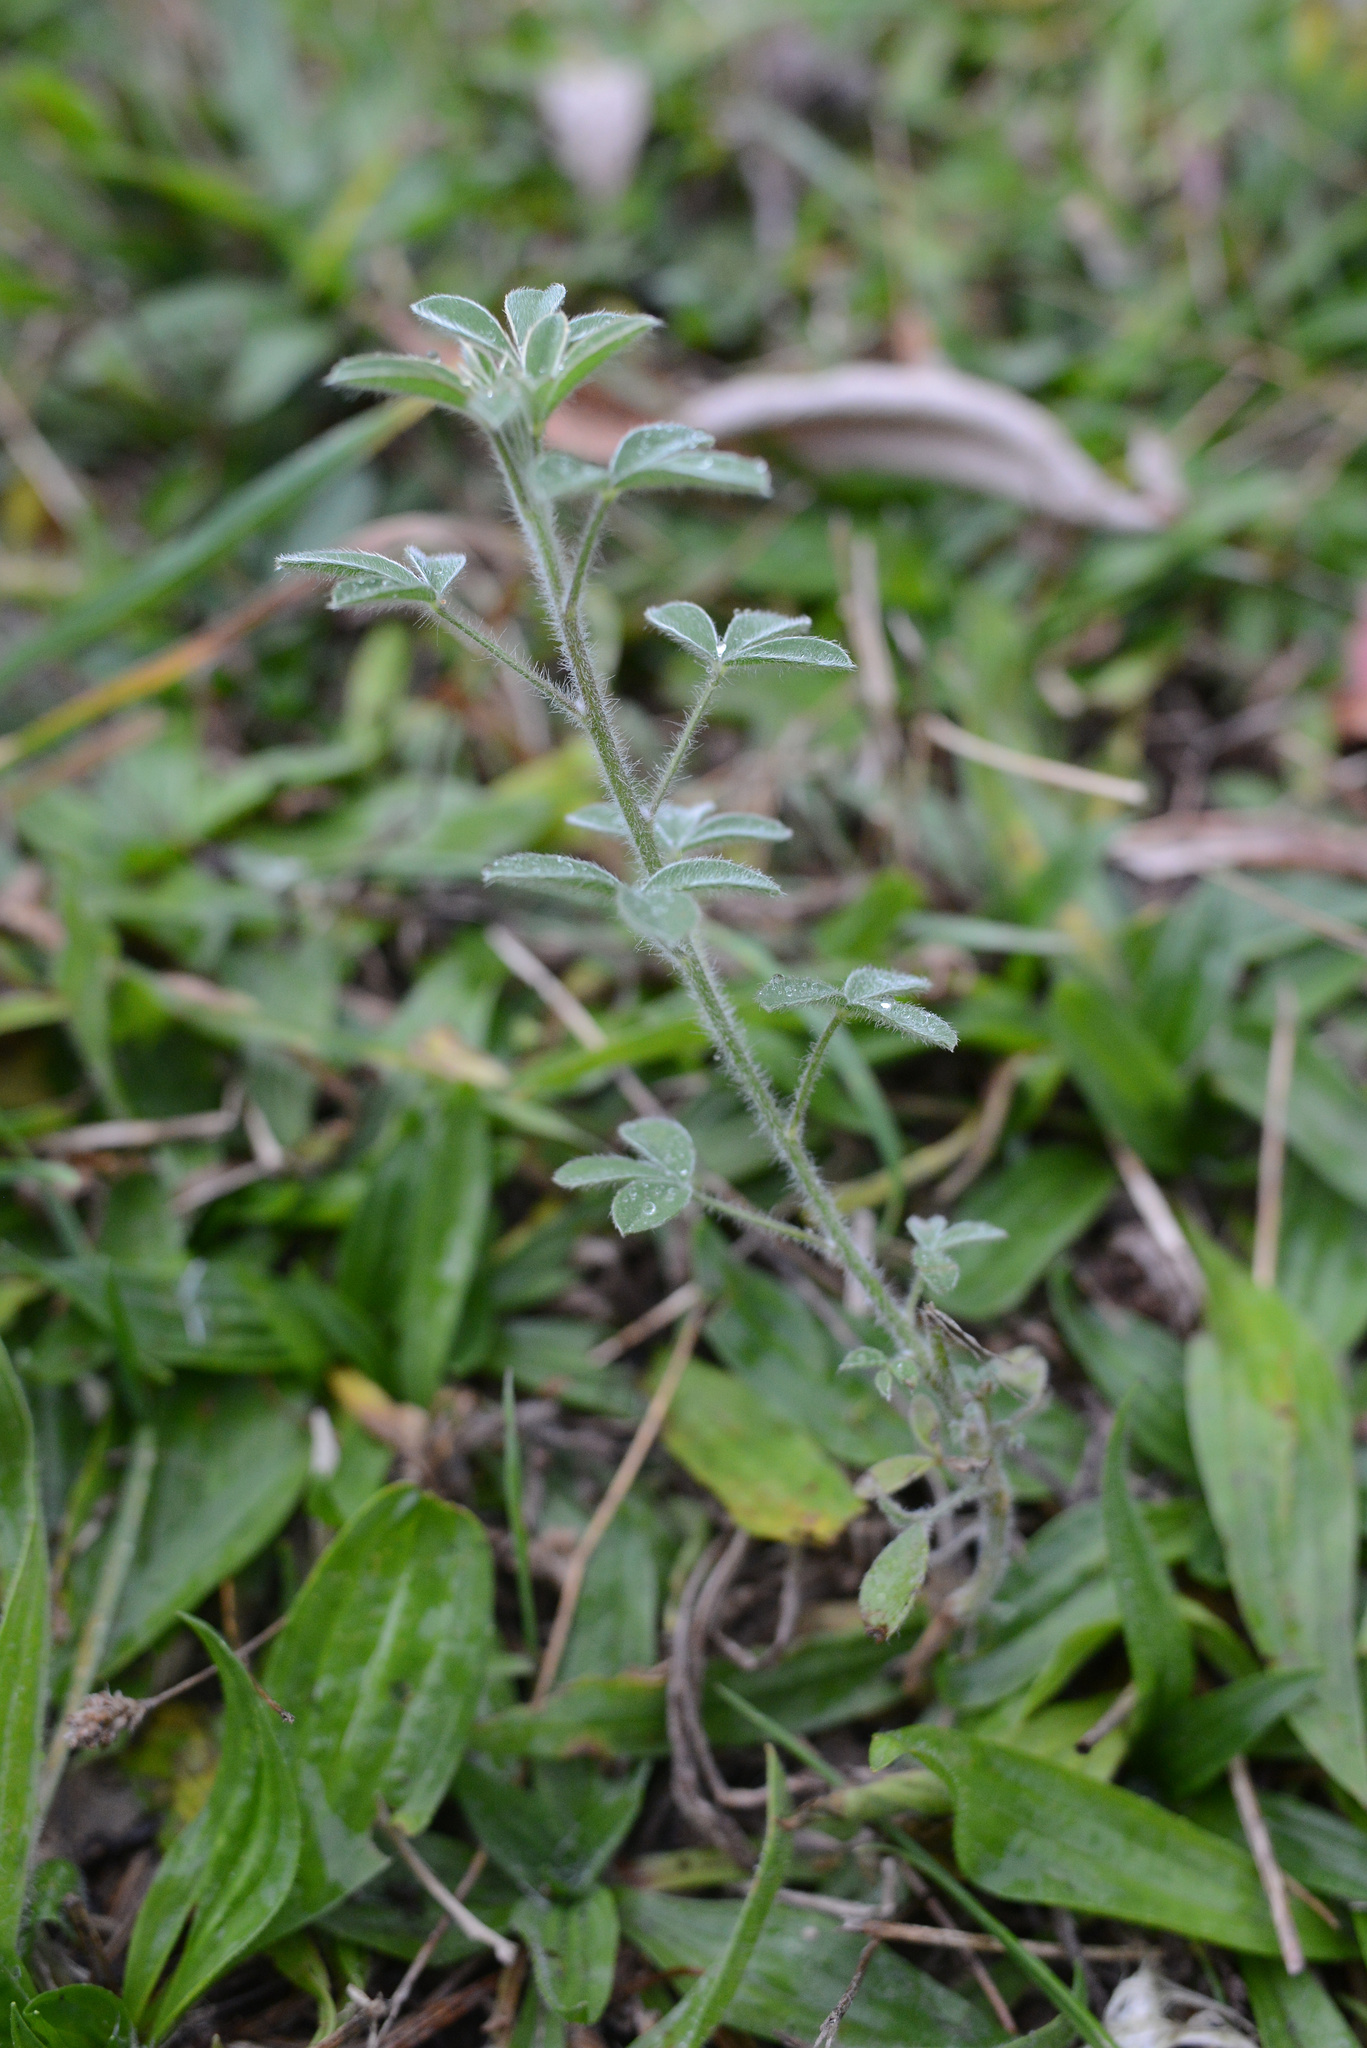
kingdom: Plantae
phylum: Tracheophyta
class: Magnoliopsida
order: Fabales
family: Fabaceae
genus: Chamaecytisus
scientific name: Chamaecytisus prolifer
